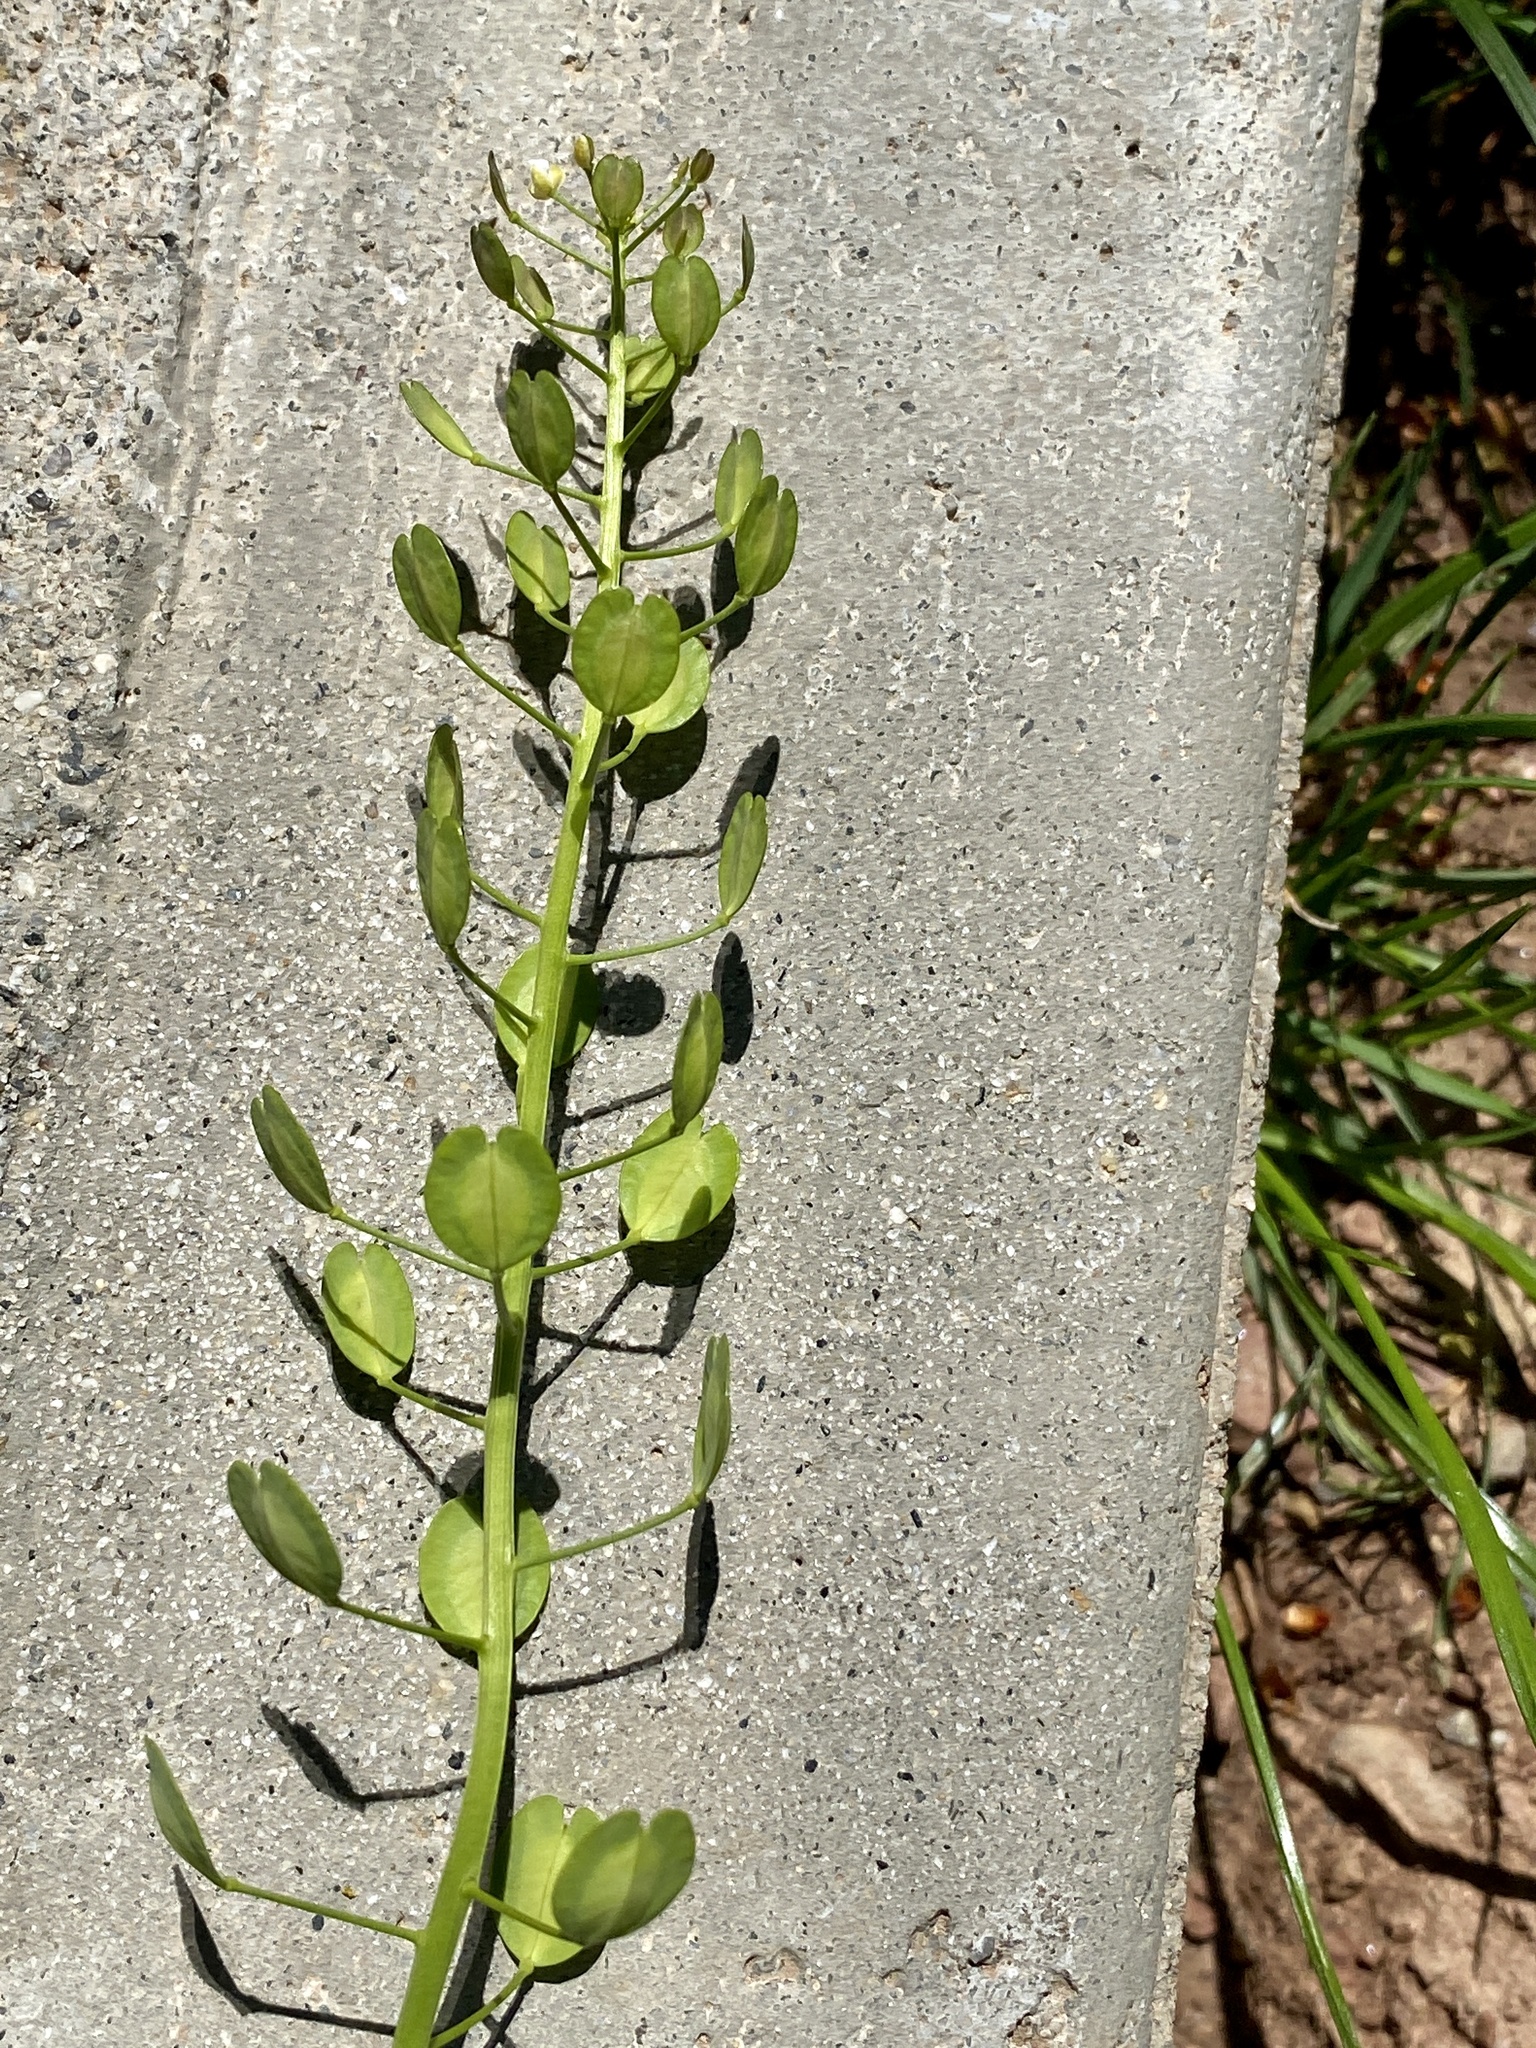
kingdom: Plantae
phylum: Tracheophyta
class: Magnoliopsida
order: Brassicales
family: Brassicaceae
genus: Thlaspi
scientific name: Thlaspi arvense
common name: Field pennycress
